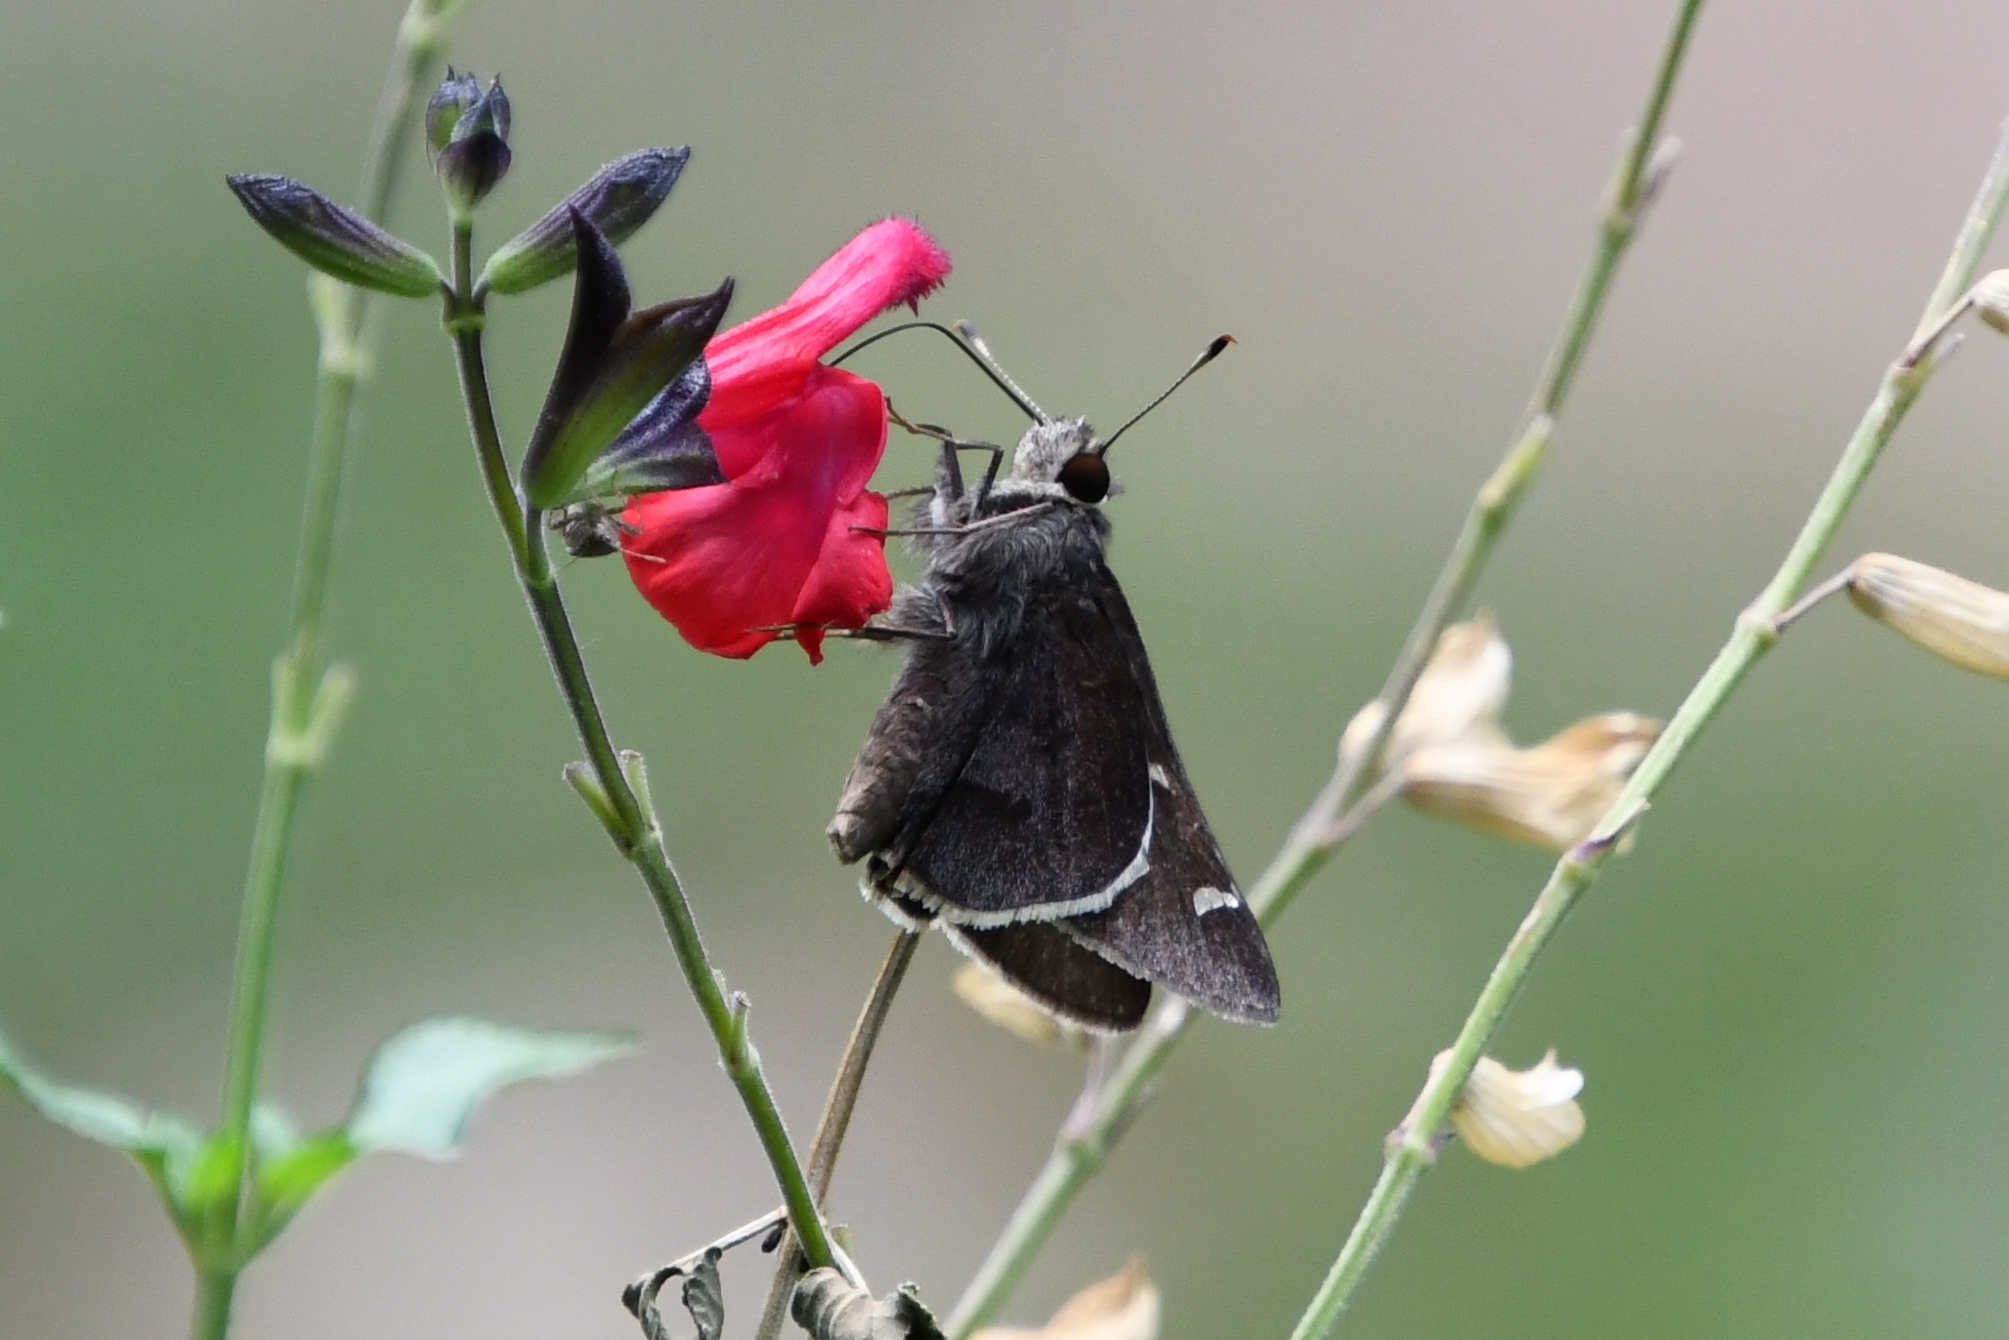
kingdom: Animalia
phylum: Arthropoda
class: Insecta
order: Lepidoptera
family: Hesperiidae
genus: Atrytonopsis
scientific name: Atrytonopsis lunus
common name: Moon-marked skipper
